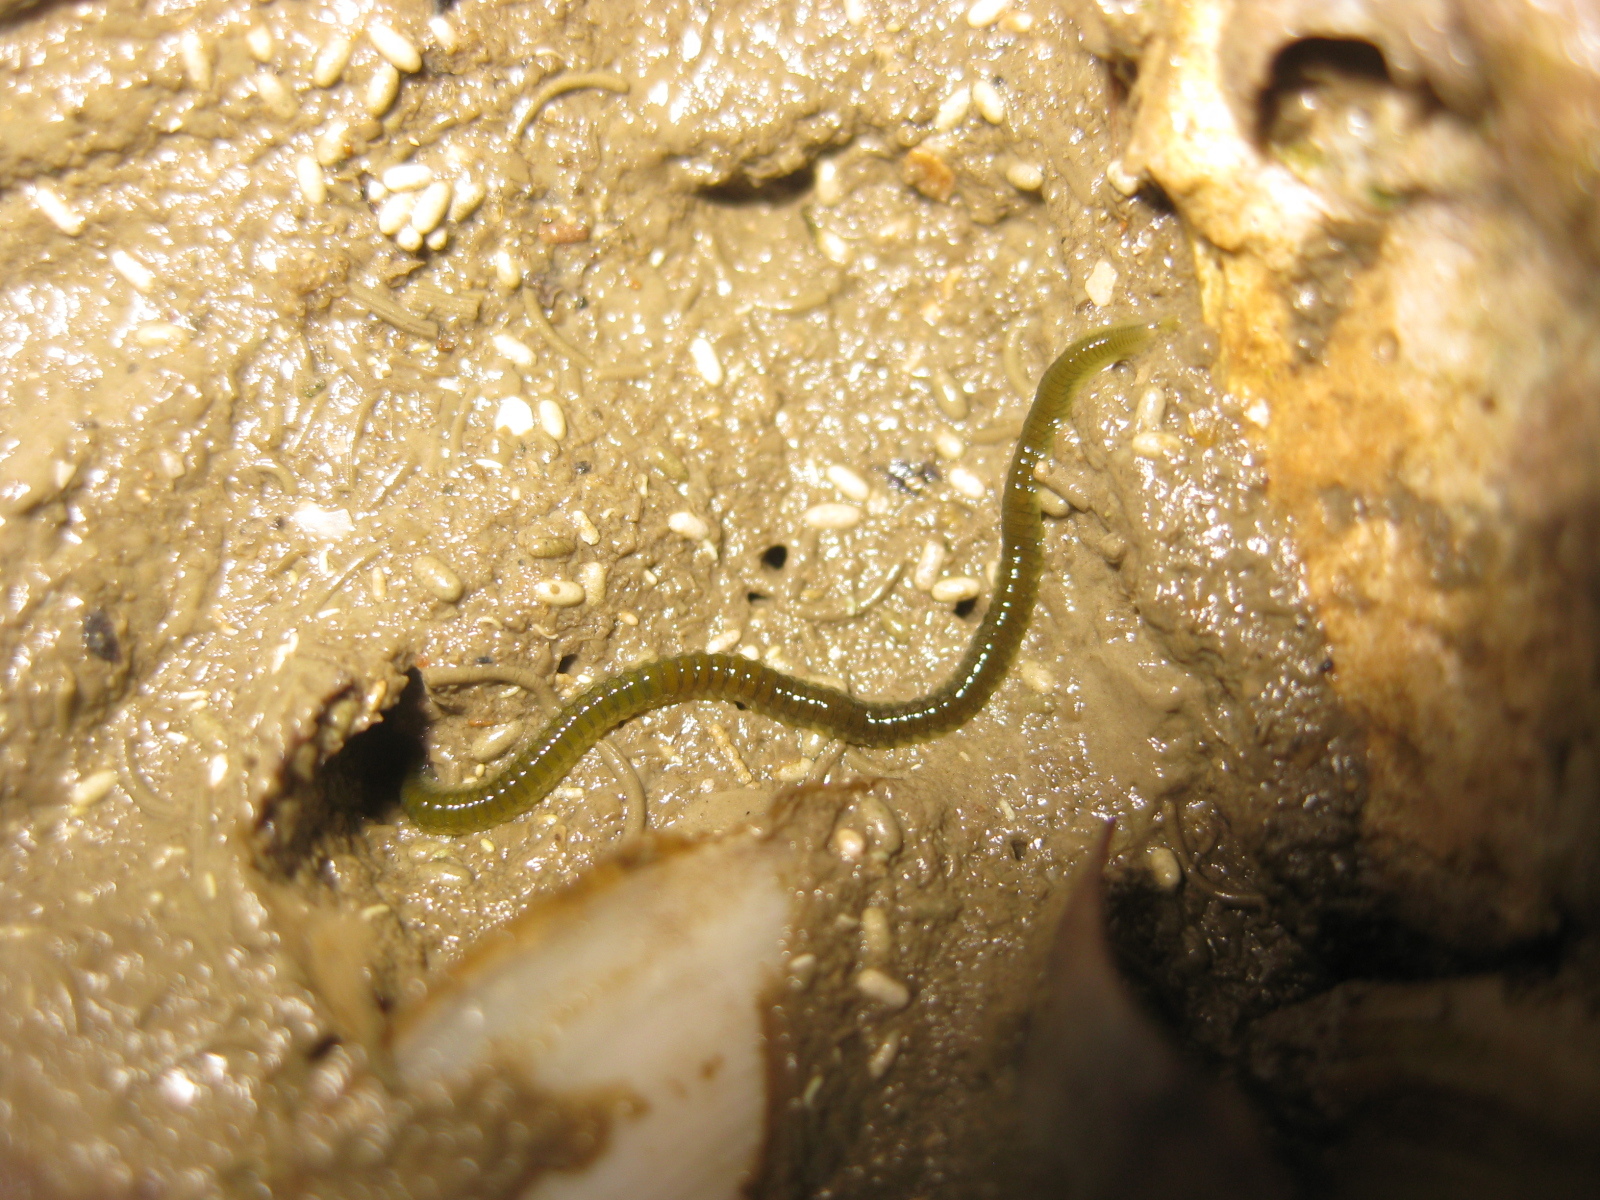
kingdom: Animalia
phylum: Annelida
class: Polychaeta
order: Phyllodocida
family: Phyllodocidae
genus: Eulalia
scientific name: Eulalia microphylla
